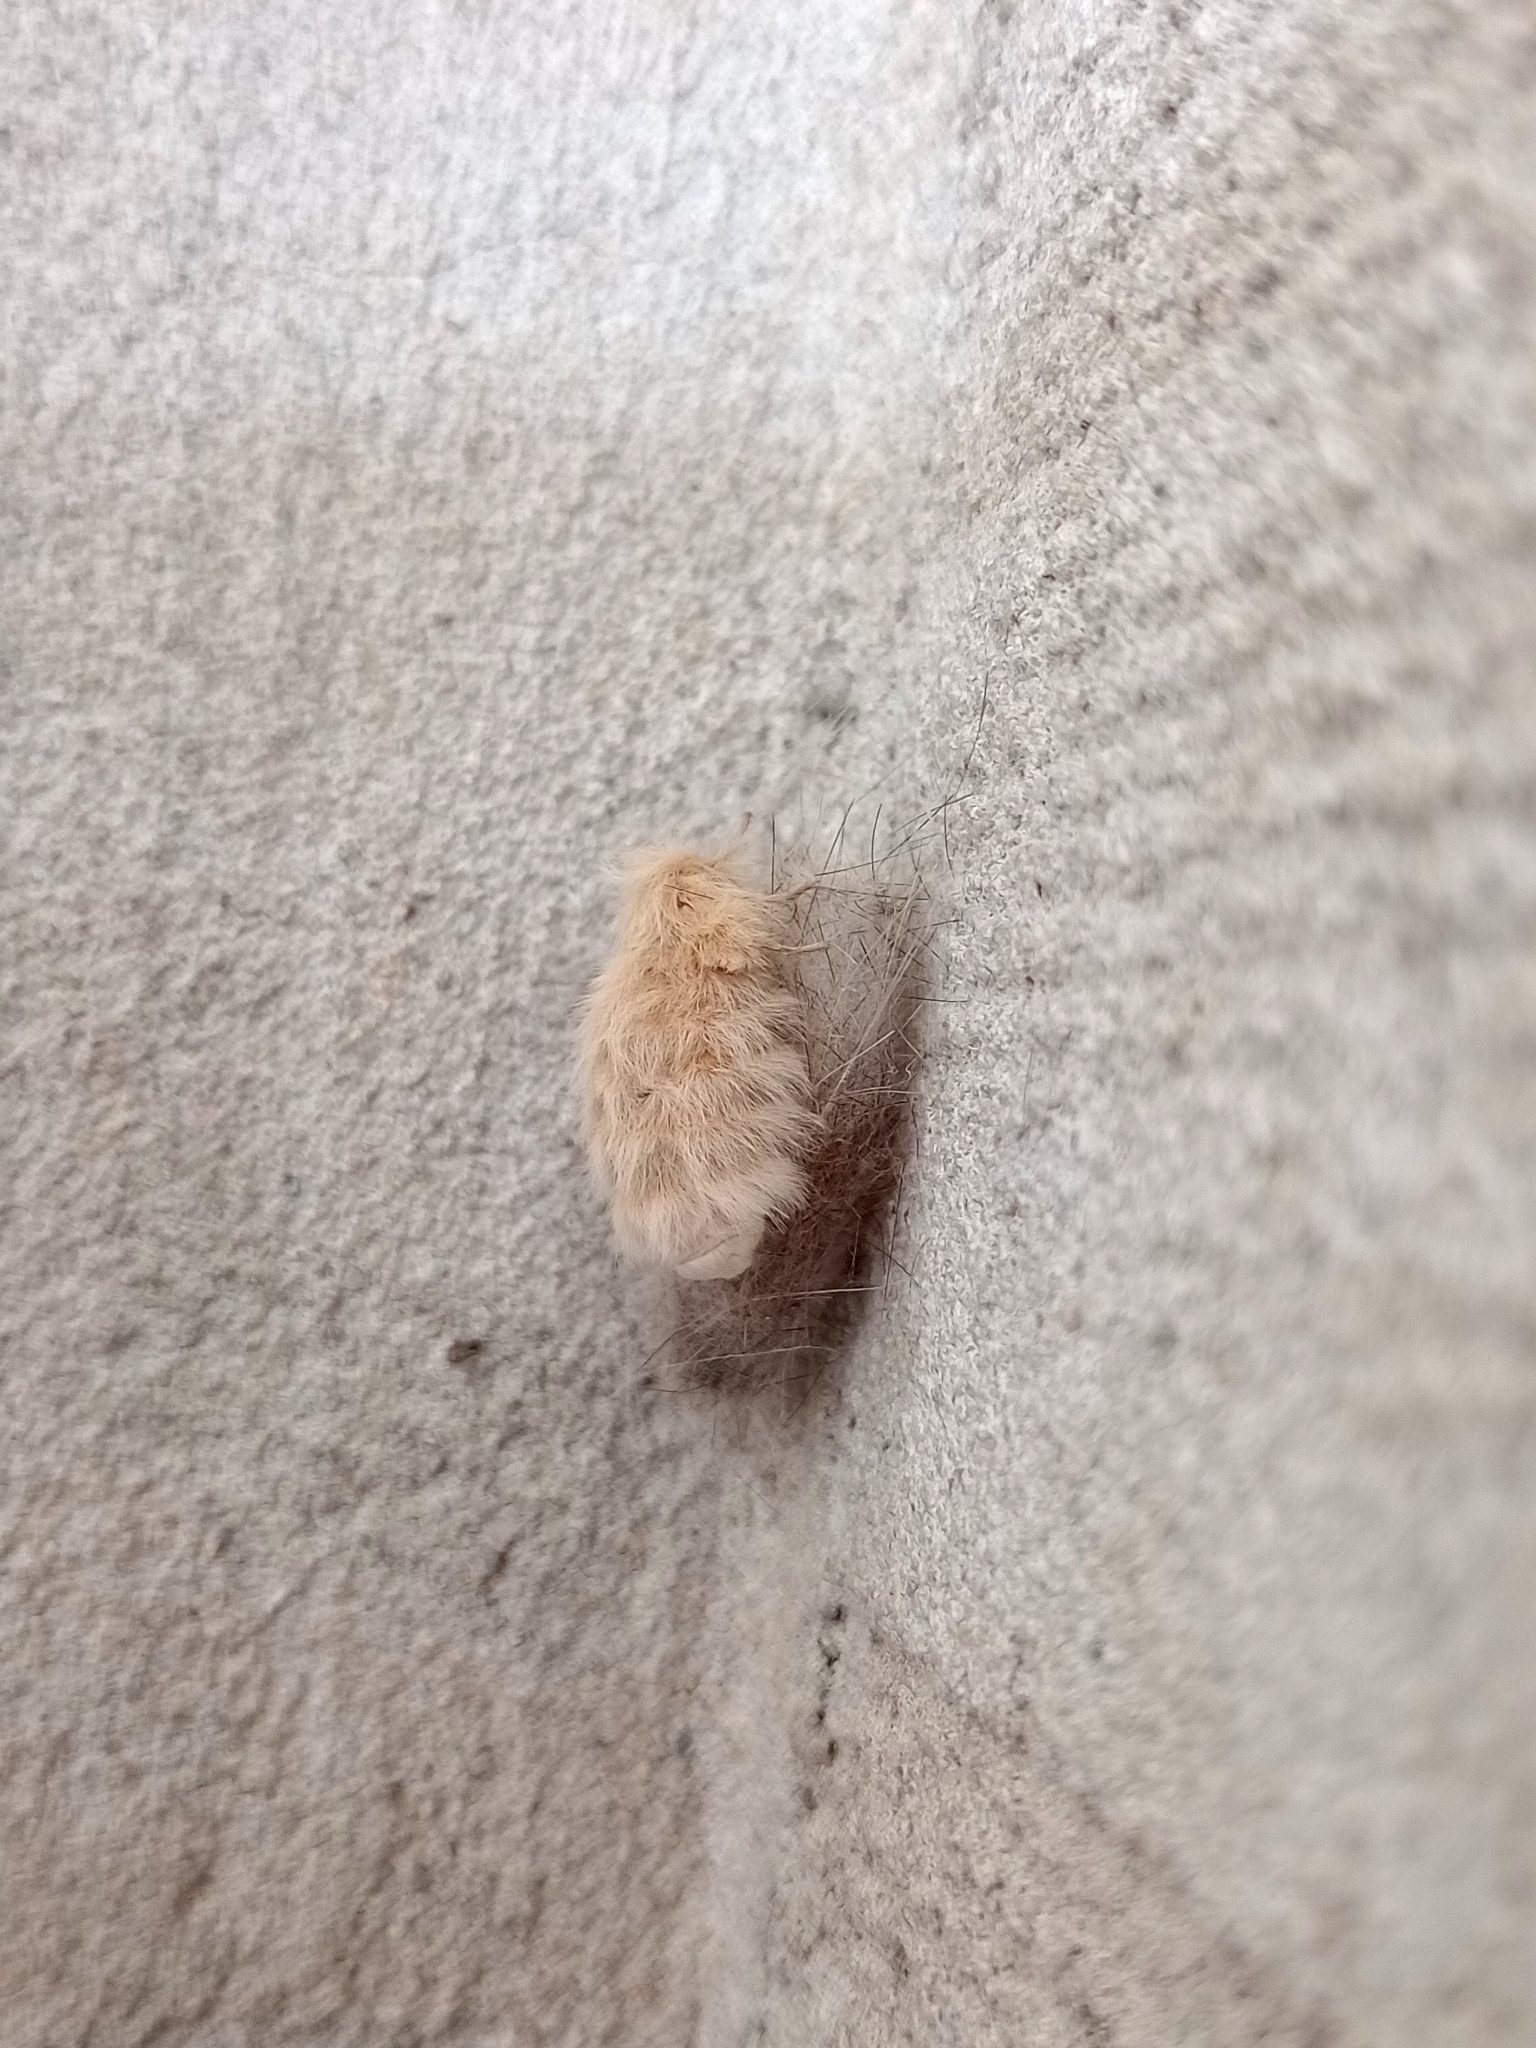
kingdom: Animalia
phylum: Arthropoda
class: Insecta
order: Lepidoptera
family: Erebidae
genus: Paracles
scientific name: Paracles deserticola
